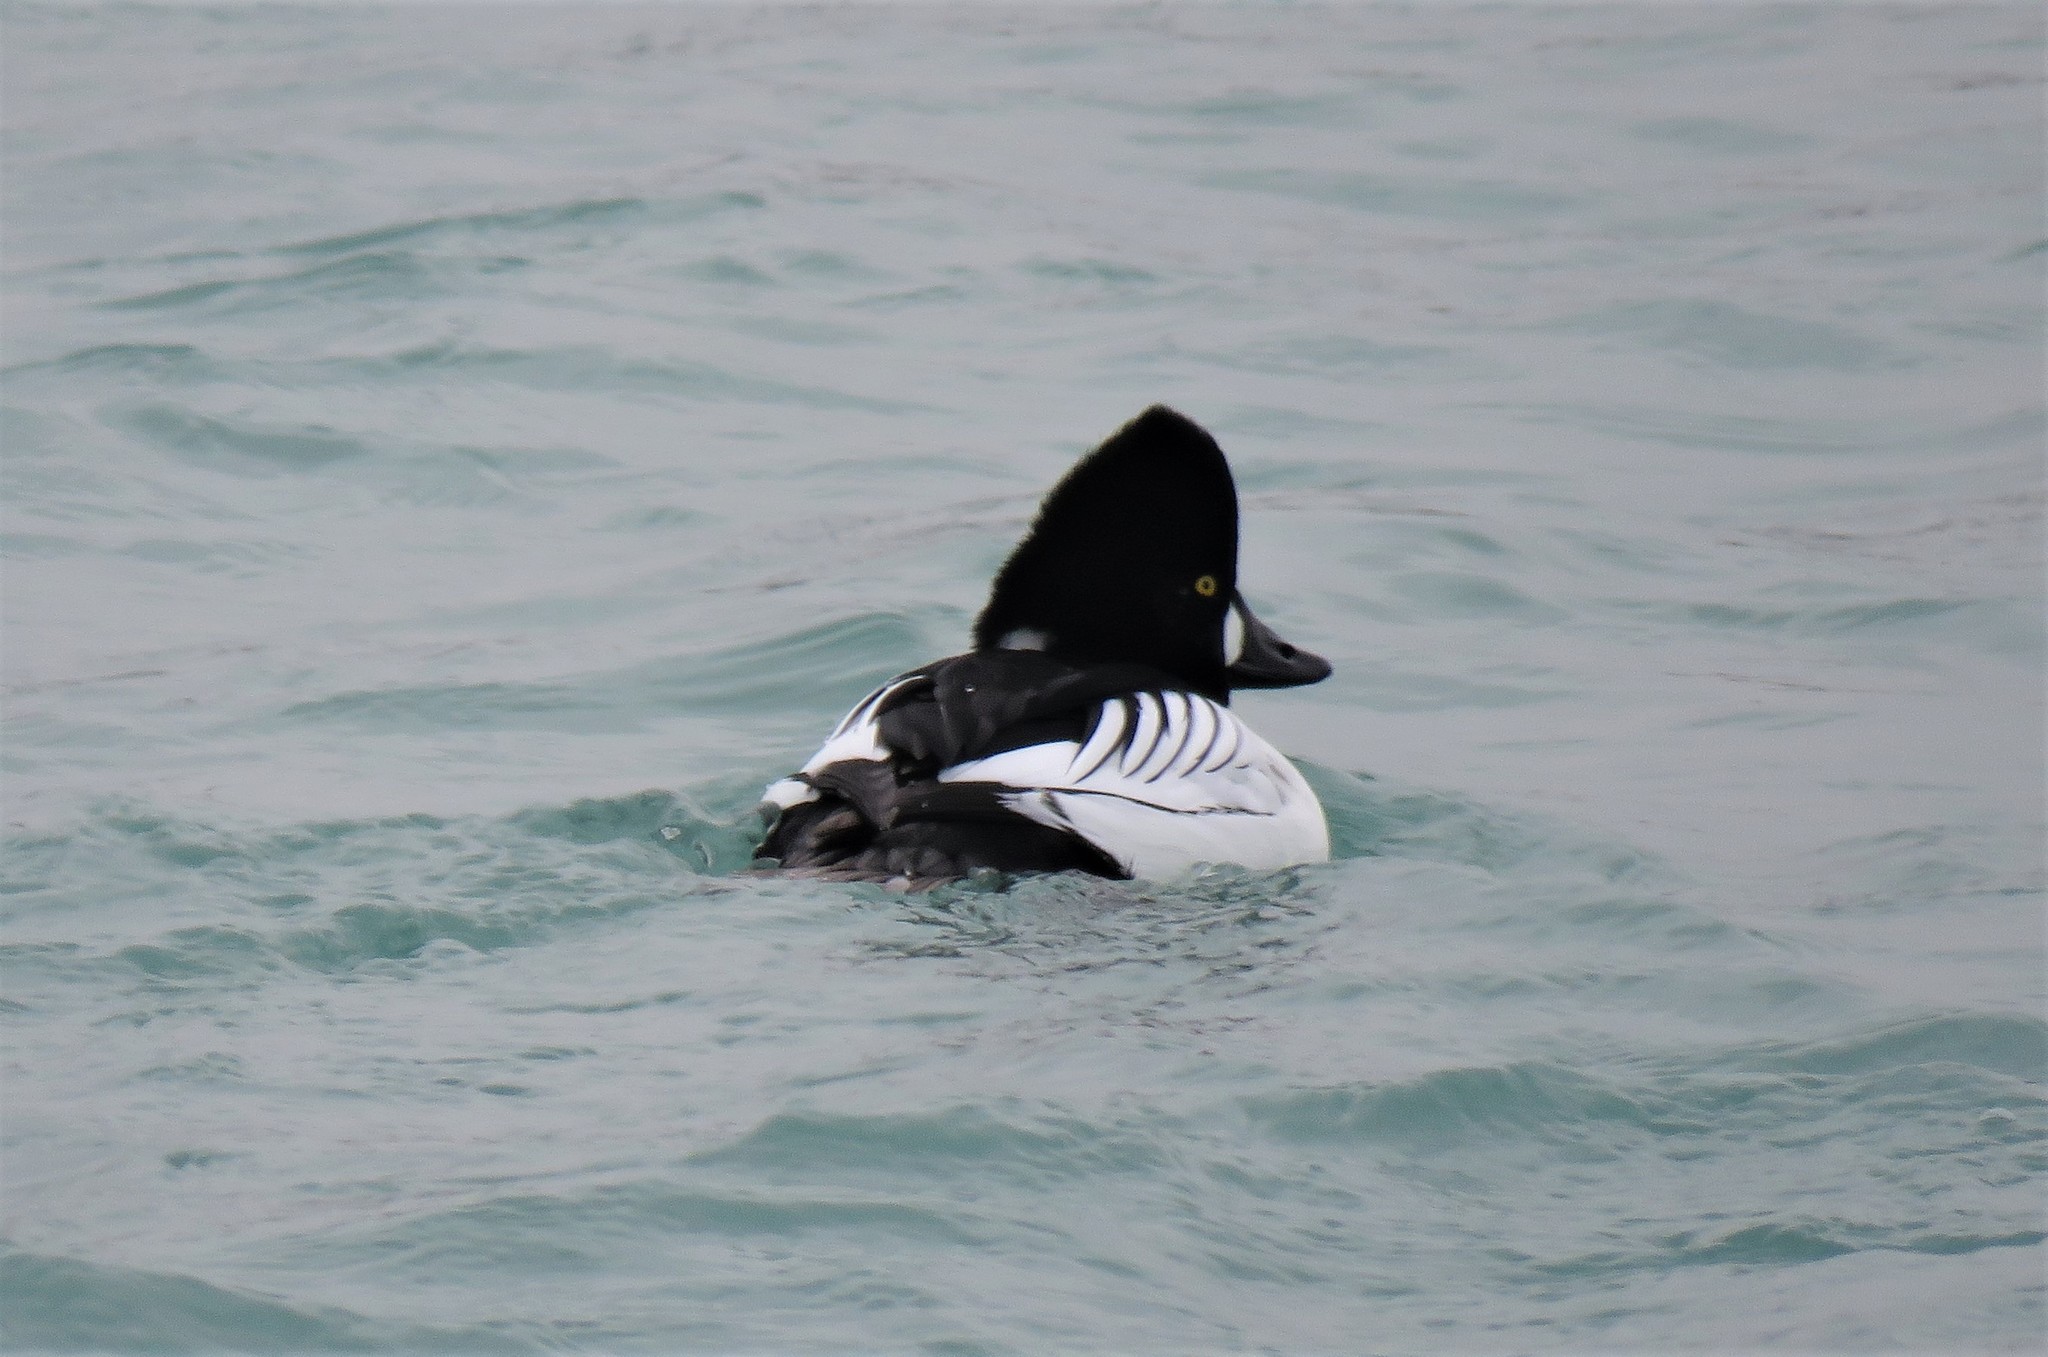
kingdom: Animalia
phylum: Chordata
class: Aves
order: Anseriformes
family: Anatidae
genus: Bucephala
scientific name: Bucephala clangula
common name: Common goldeneye
